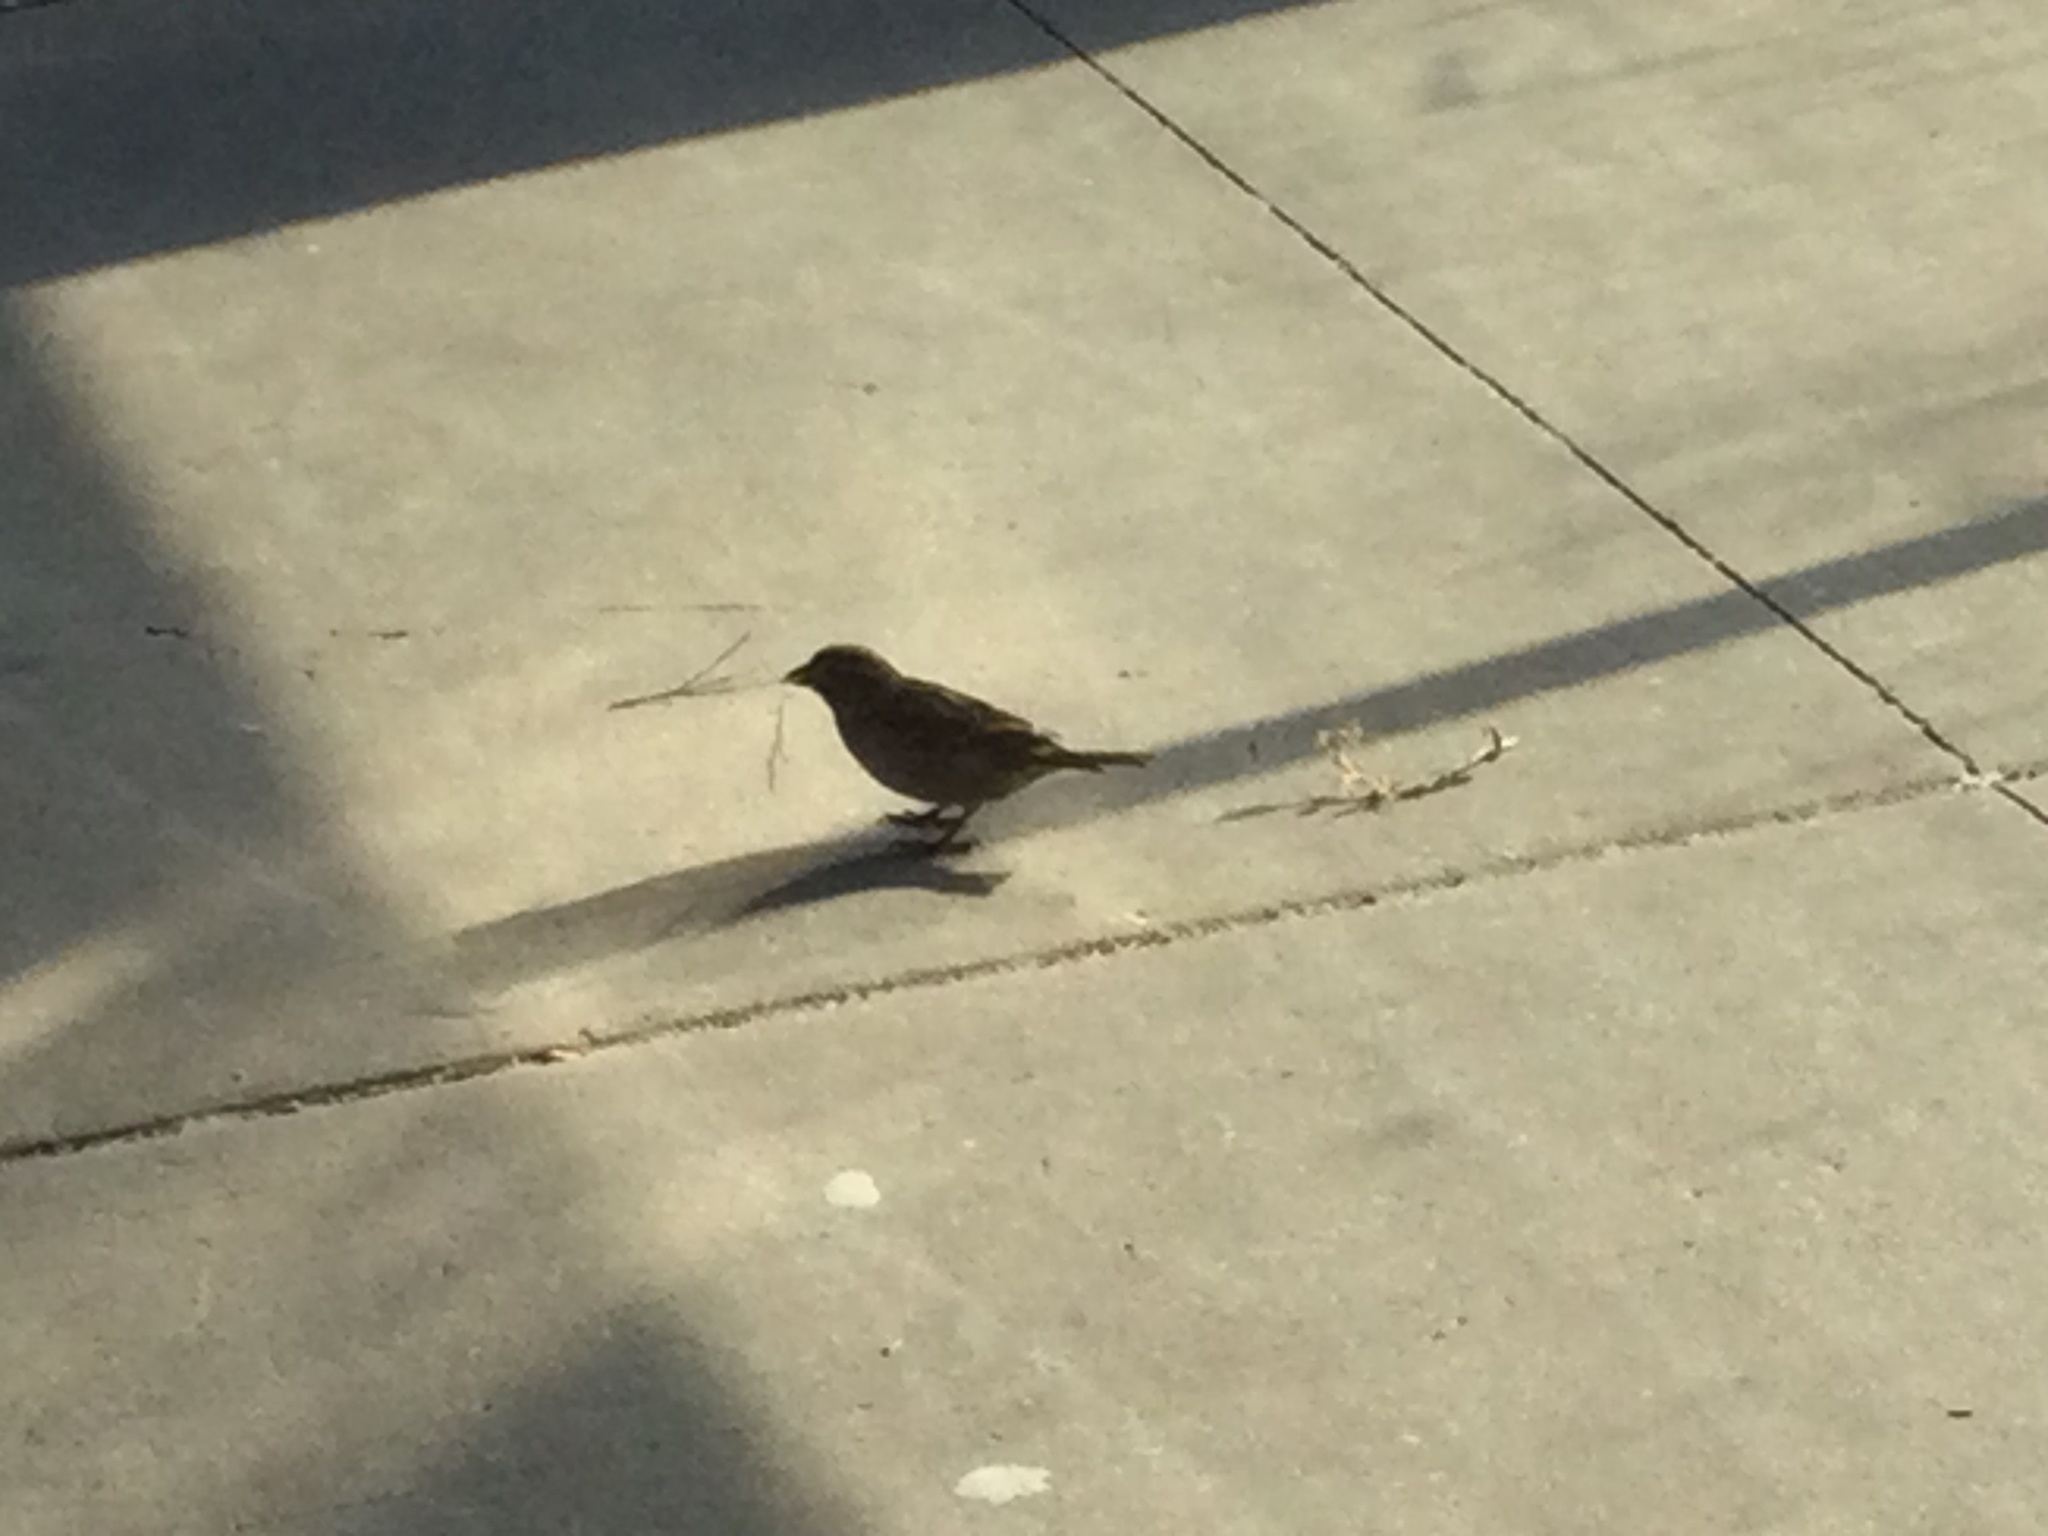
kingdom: Animalia
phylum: Chordata
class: Aves
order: Passeriformes
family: Passeridae
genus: Passer
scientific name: Passer domesticus
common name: House sparrow
